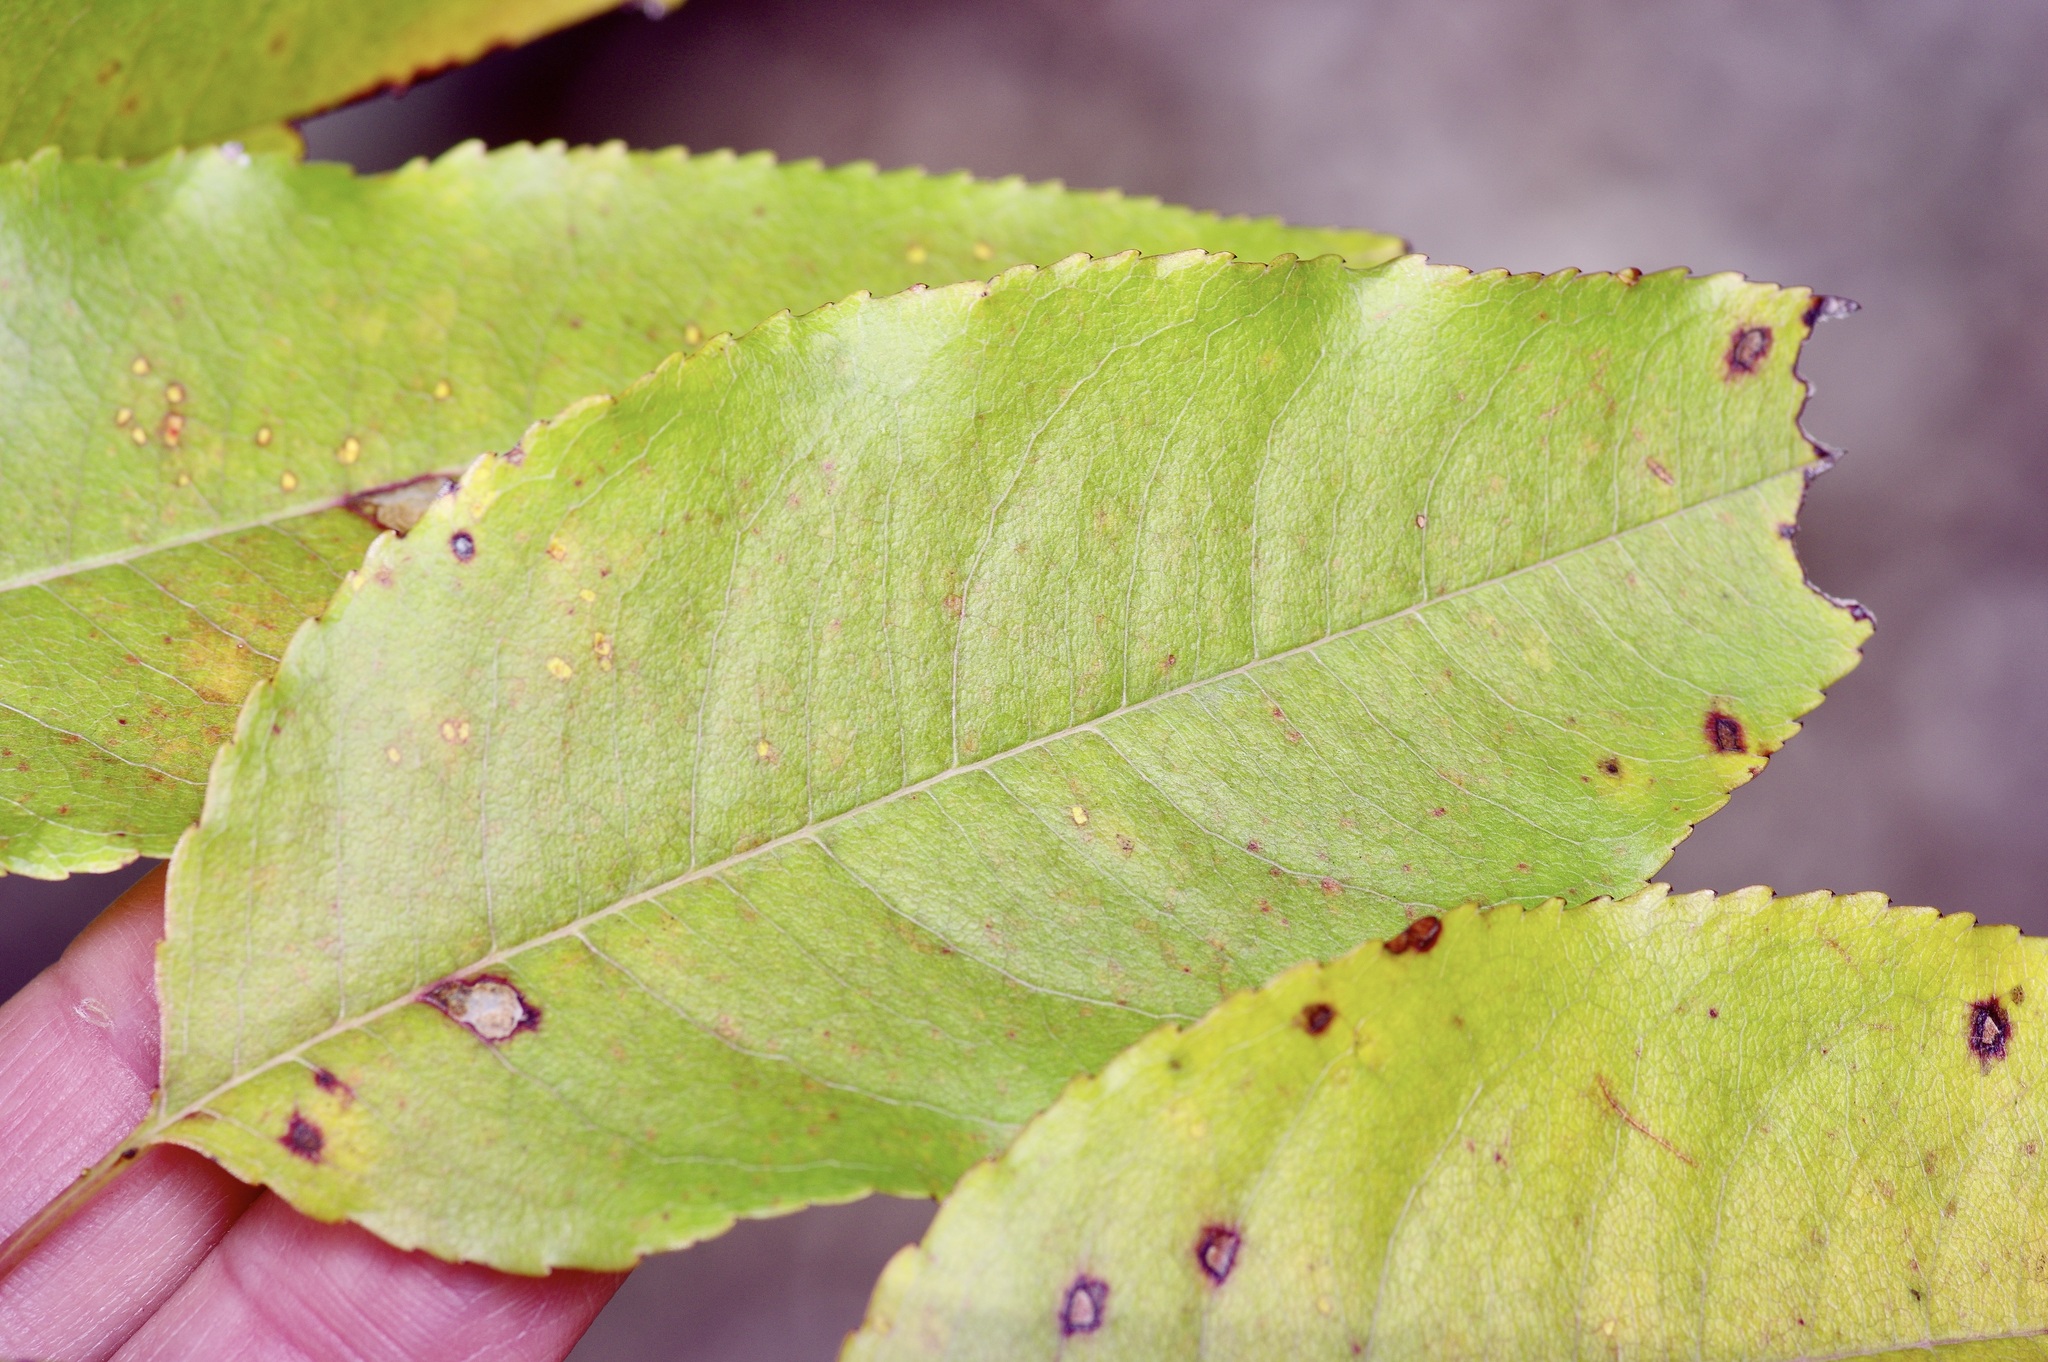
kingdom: Plantae
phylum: Tracheophyta
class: Magnoliopsida
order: Rosales
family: Rosaceae
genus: Prunus
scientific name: Prunus serotina
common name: Black cherry
